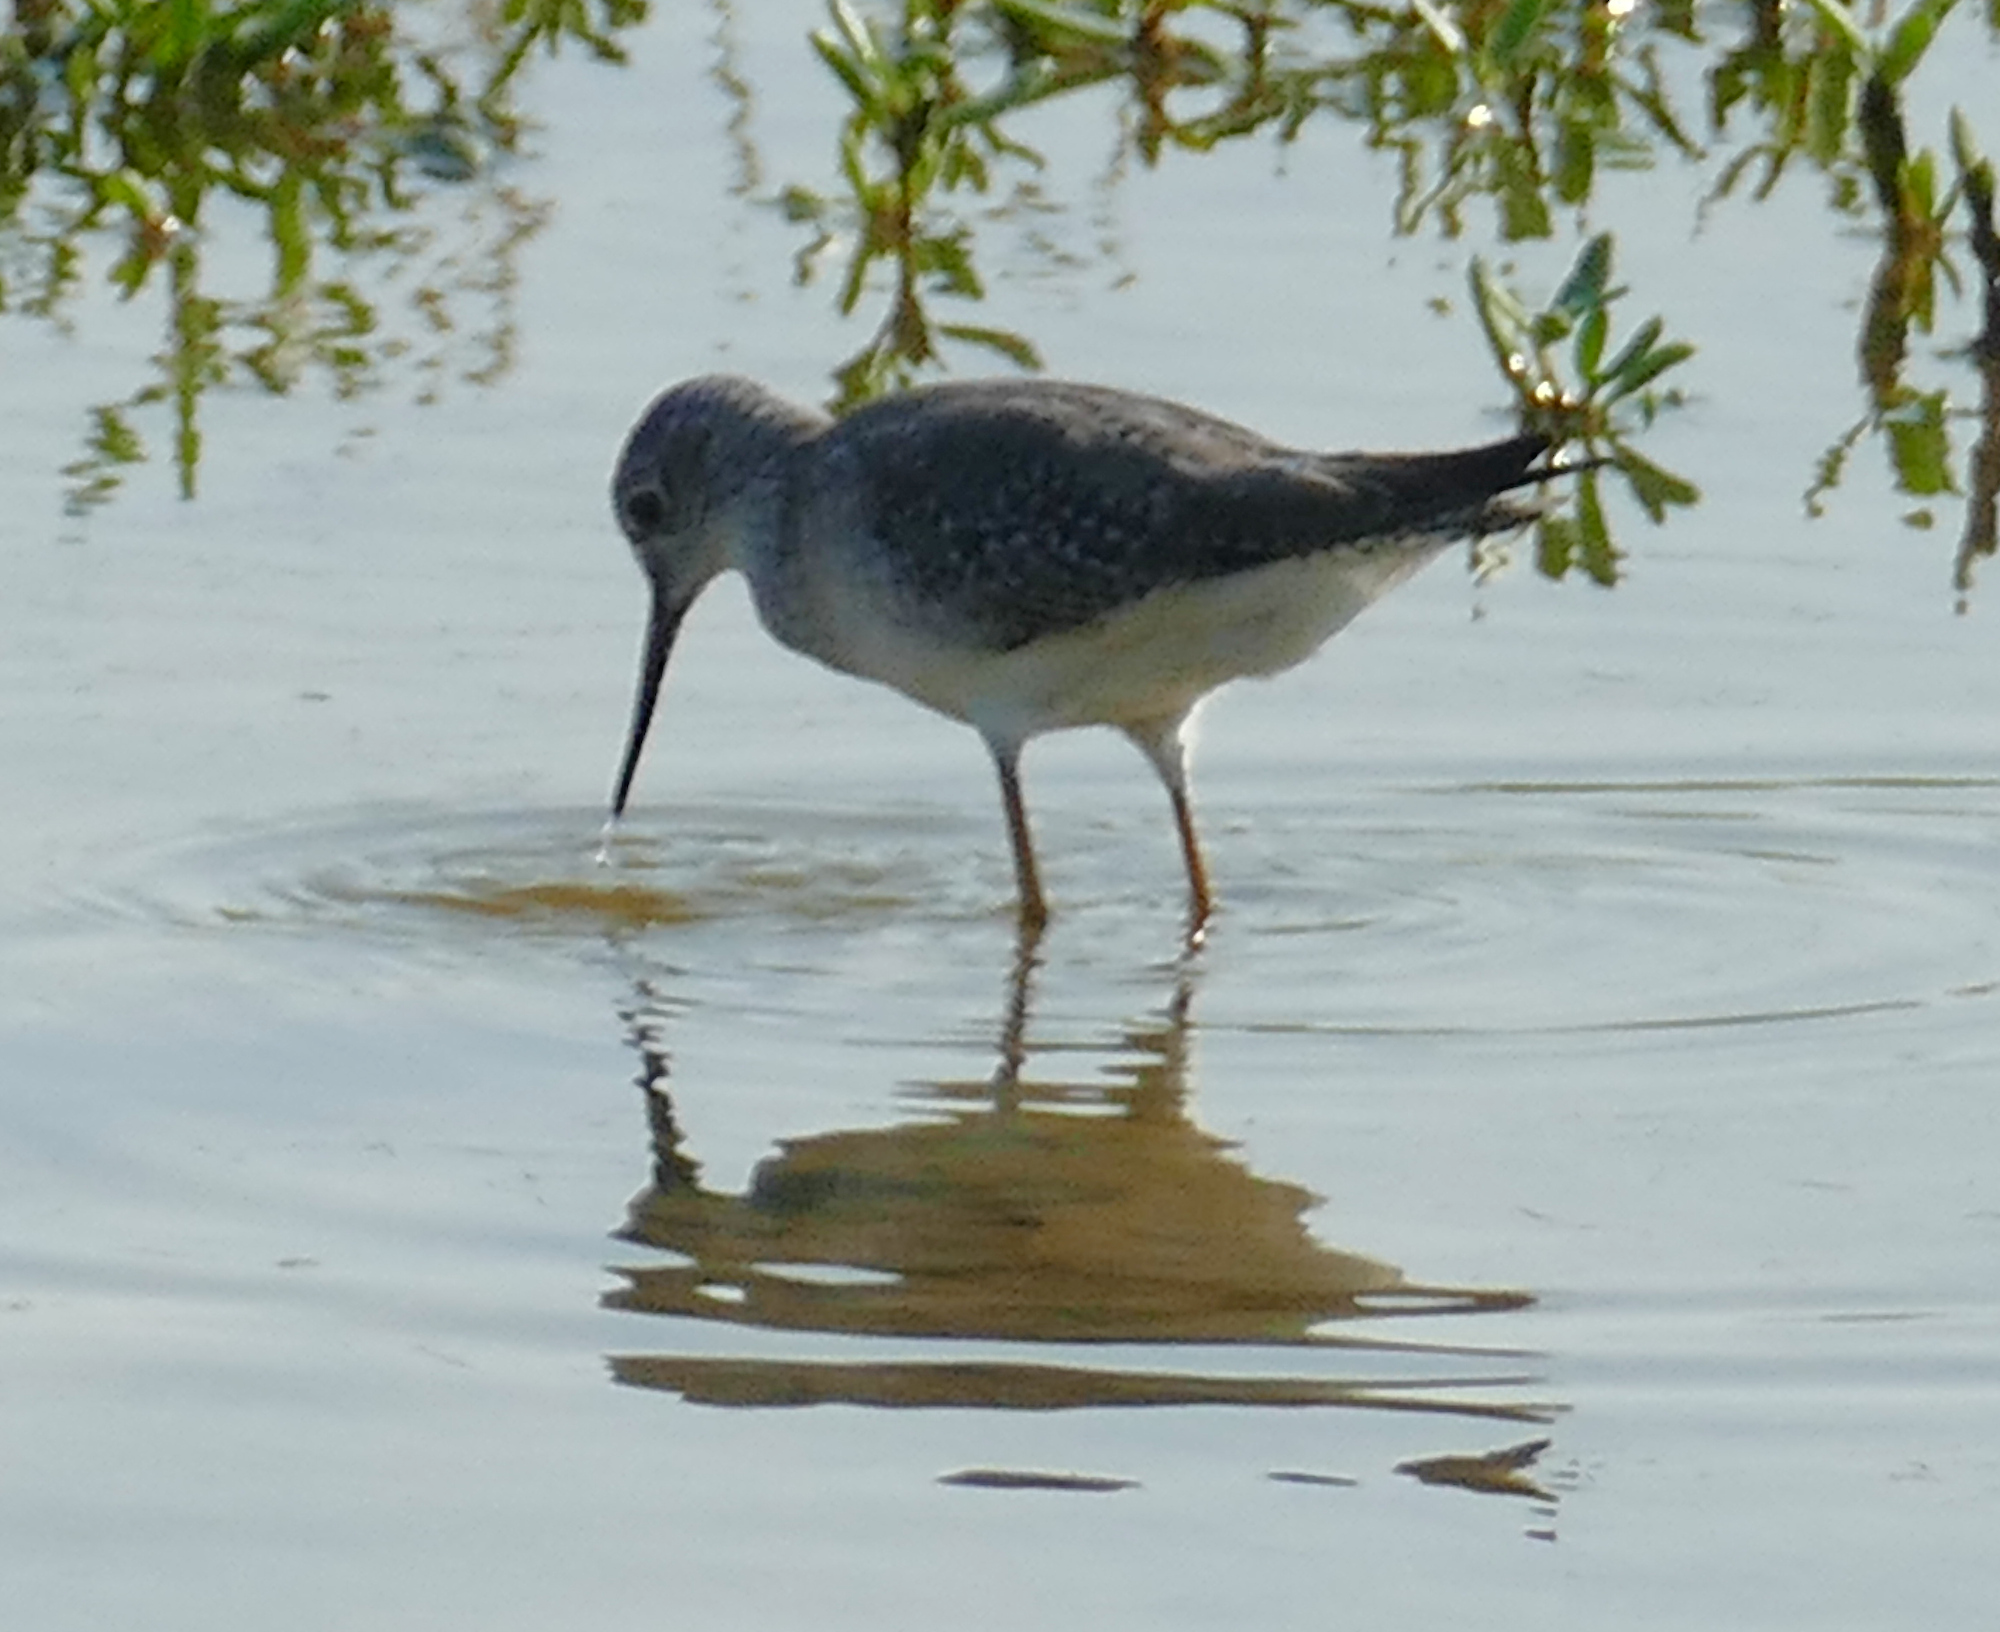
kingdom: Animalia
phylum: Chordata
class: Aves
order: Charadriiformes
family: Scolopacidae
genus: Tringa
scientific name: Tringa flavipes
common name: Lesser yellowlegs
